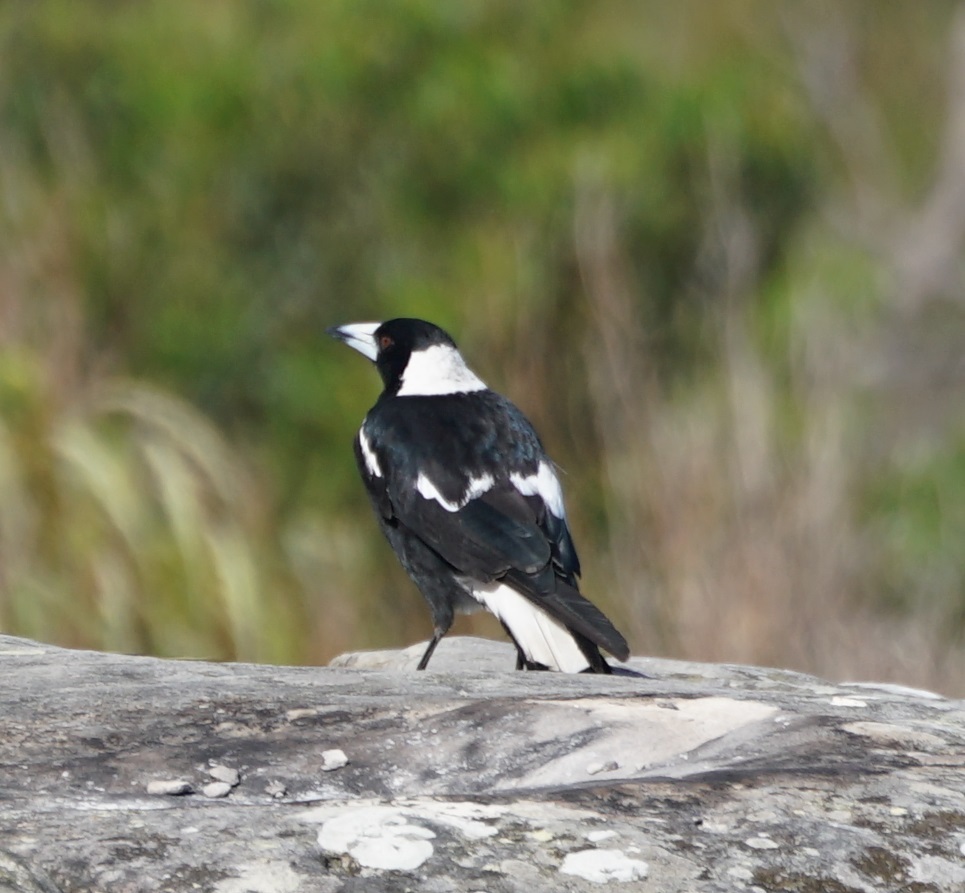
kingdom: Animalia
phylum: Chordata
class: Aves
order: Passeriformes
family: Cracticidae
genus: Gymnorhina
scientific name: Gymnorhina tibicen
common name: Australian magpie
